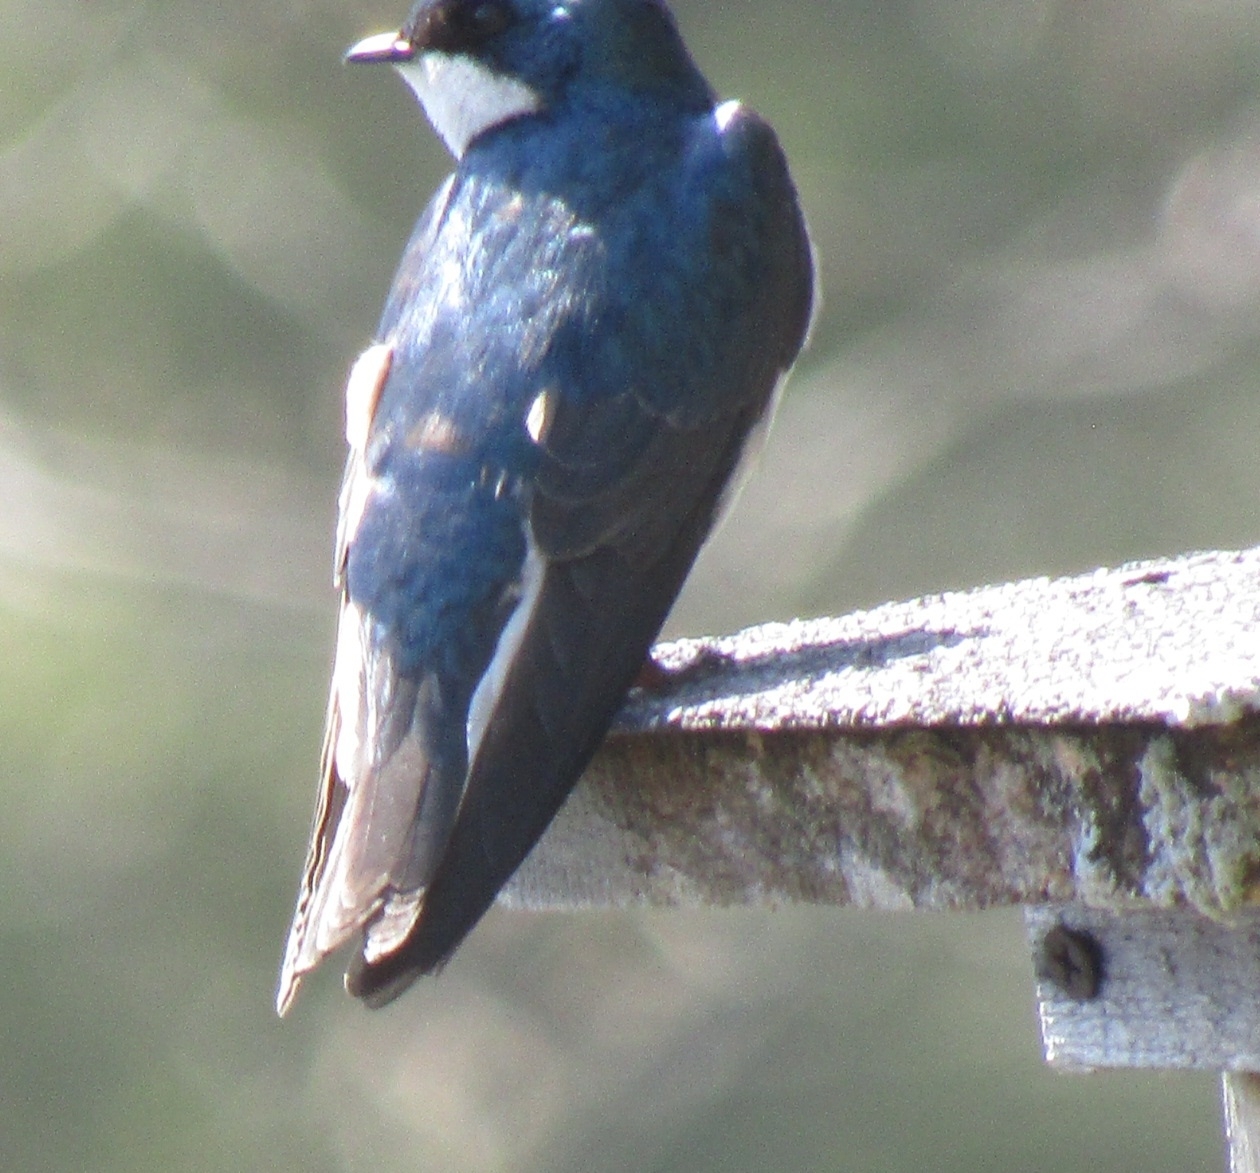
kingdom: Animalia
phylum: Chordata
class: Aves
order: Passeriformes
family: Hirundinidae
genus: Tachycineta
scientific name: Tachycineta bicolor
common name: Tree swallow
